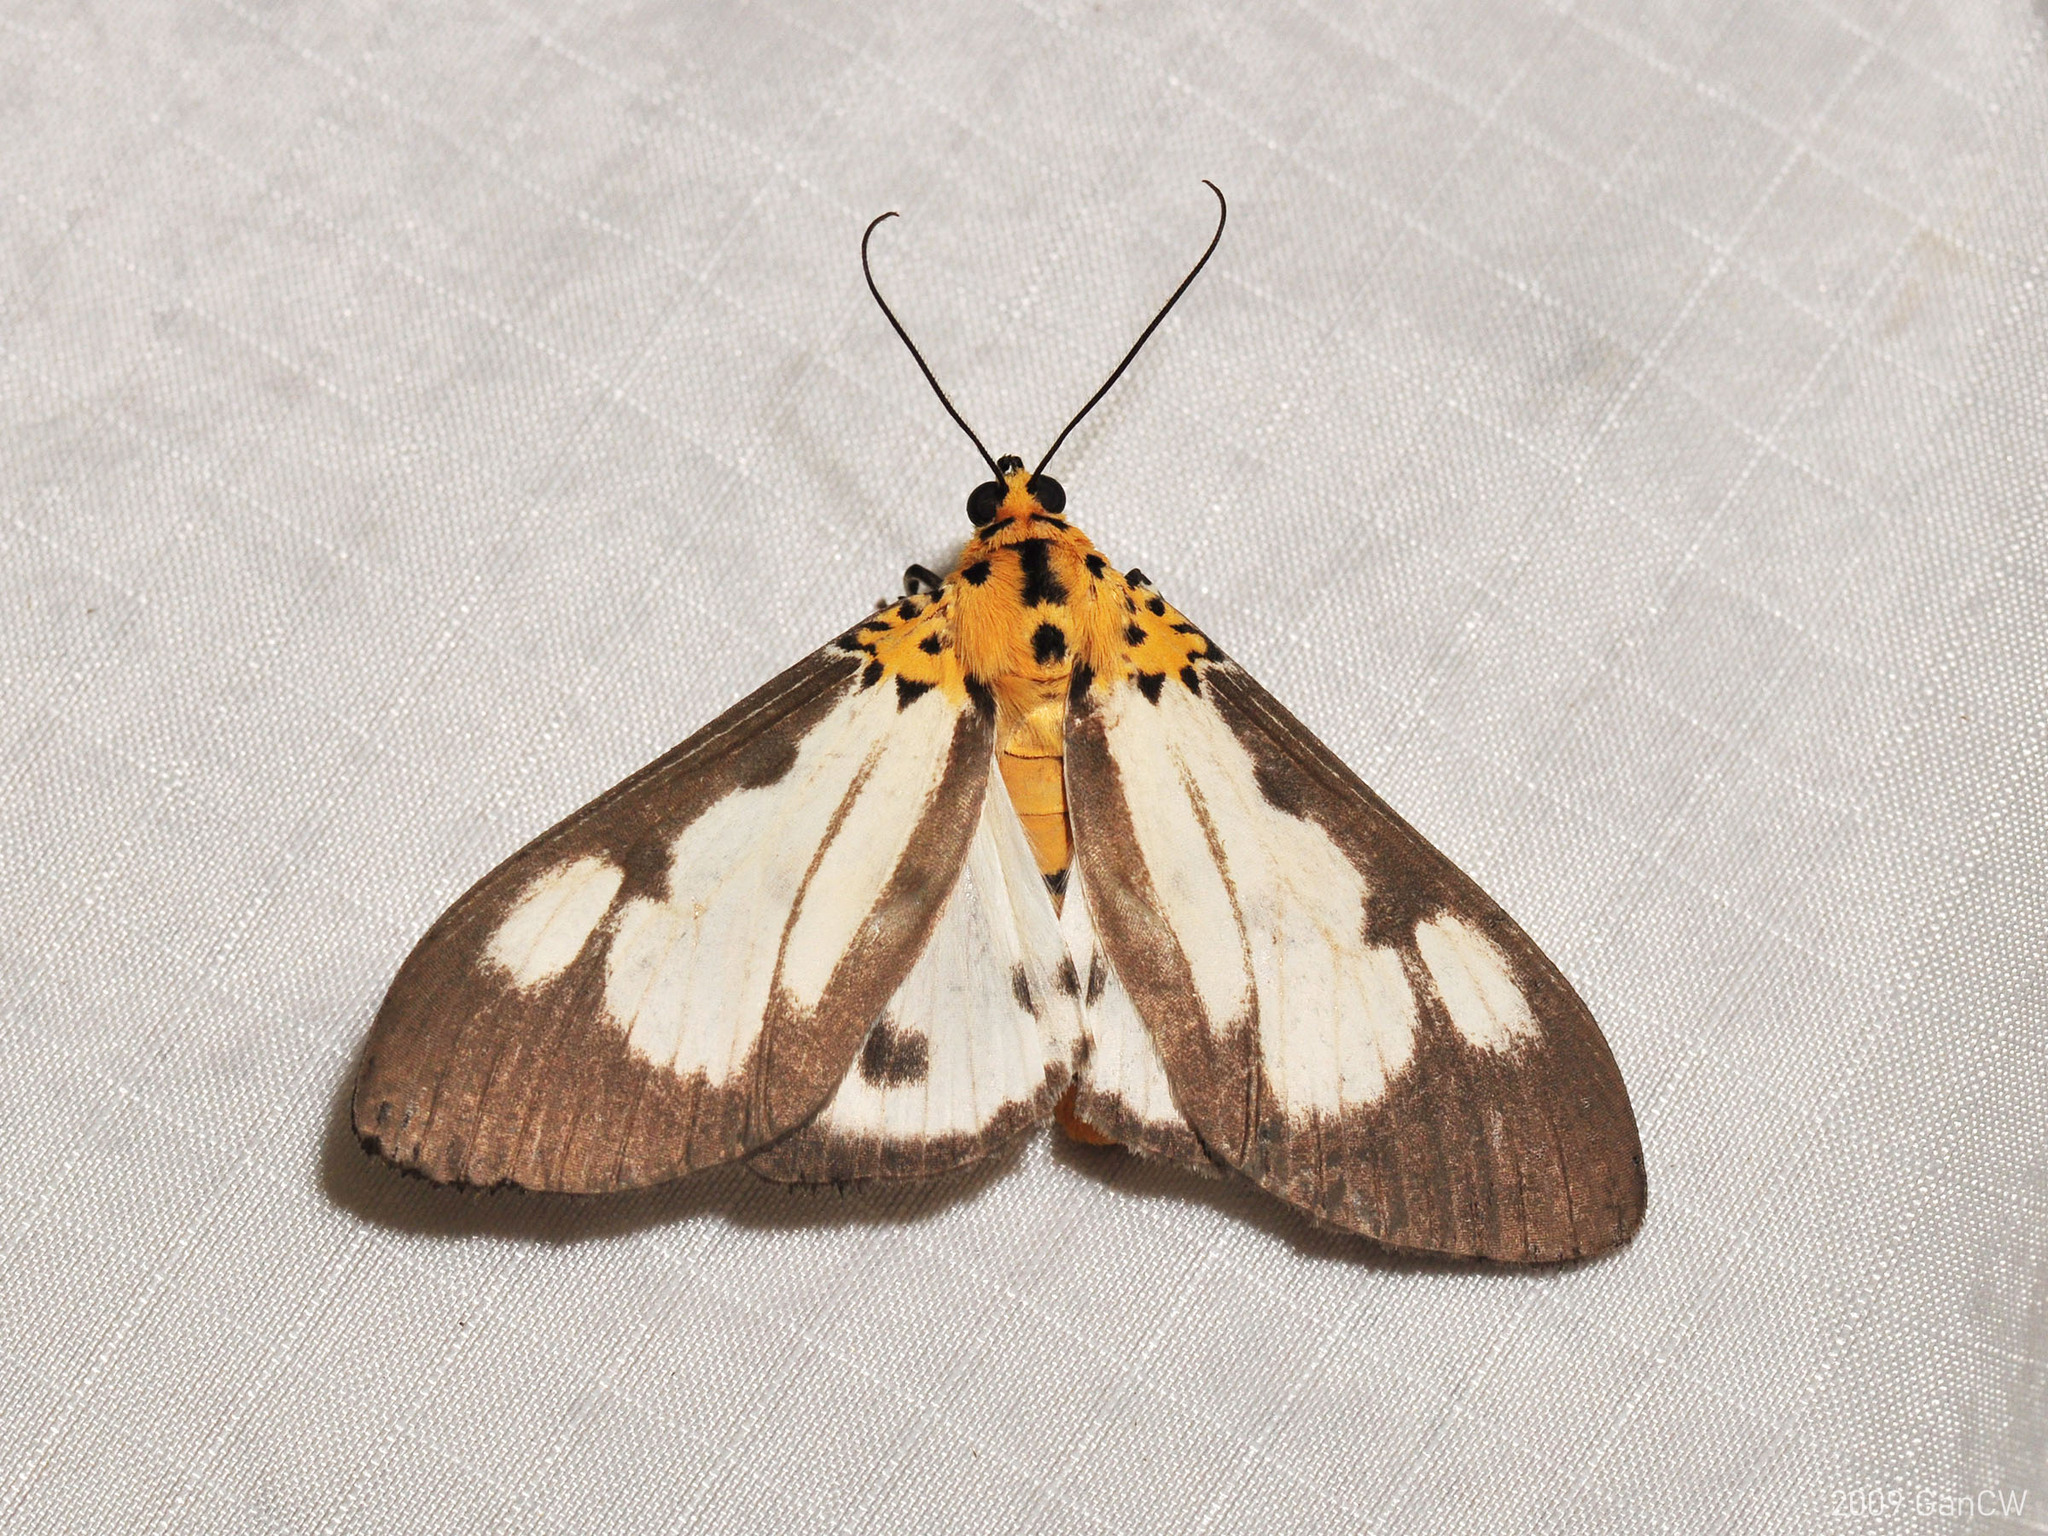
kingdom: Animalia
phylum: Arthropoda
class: Insecta
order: Lepidoptera
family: Erebidae
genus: Asota
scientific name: Asota plana
